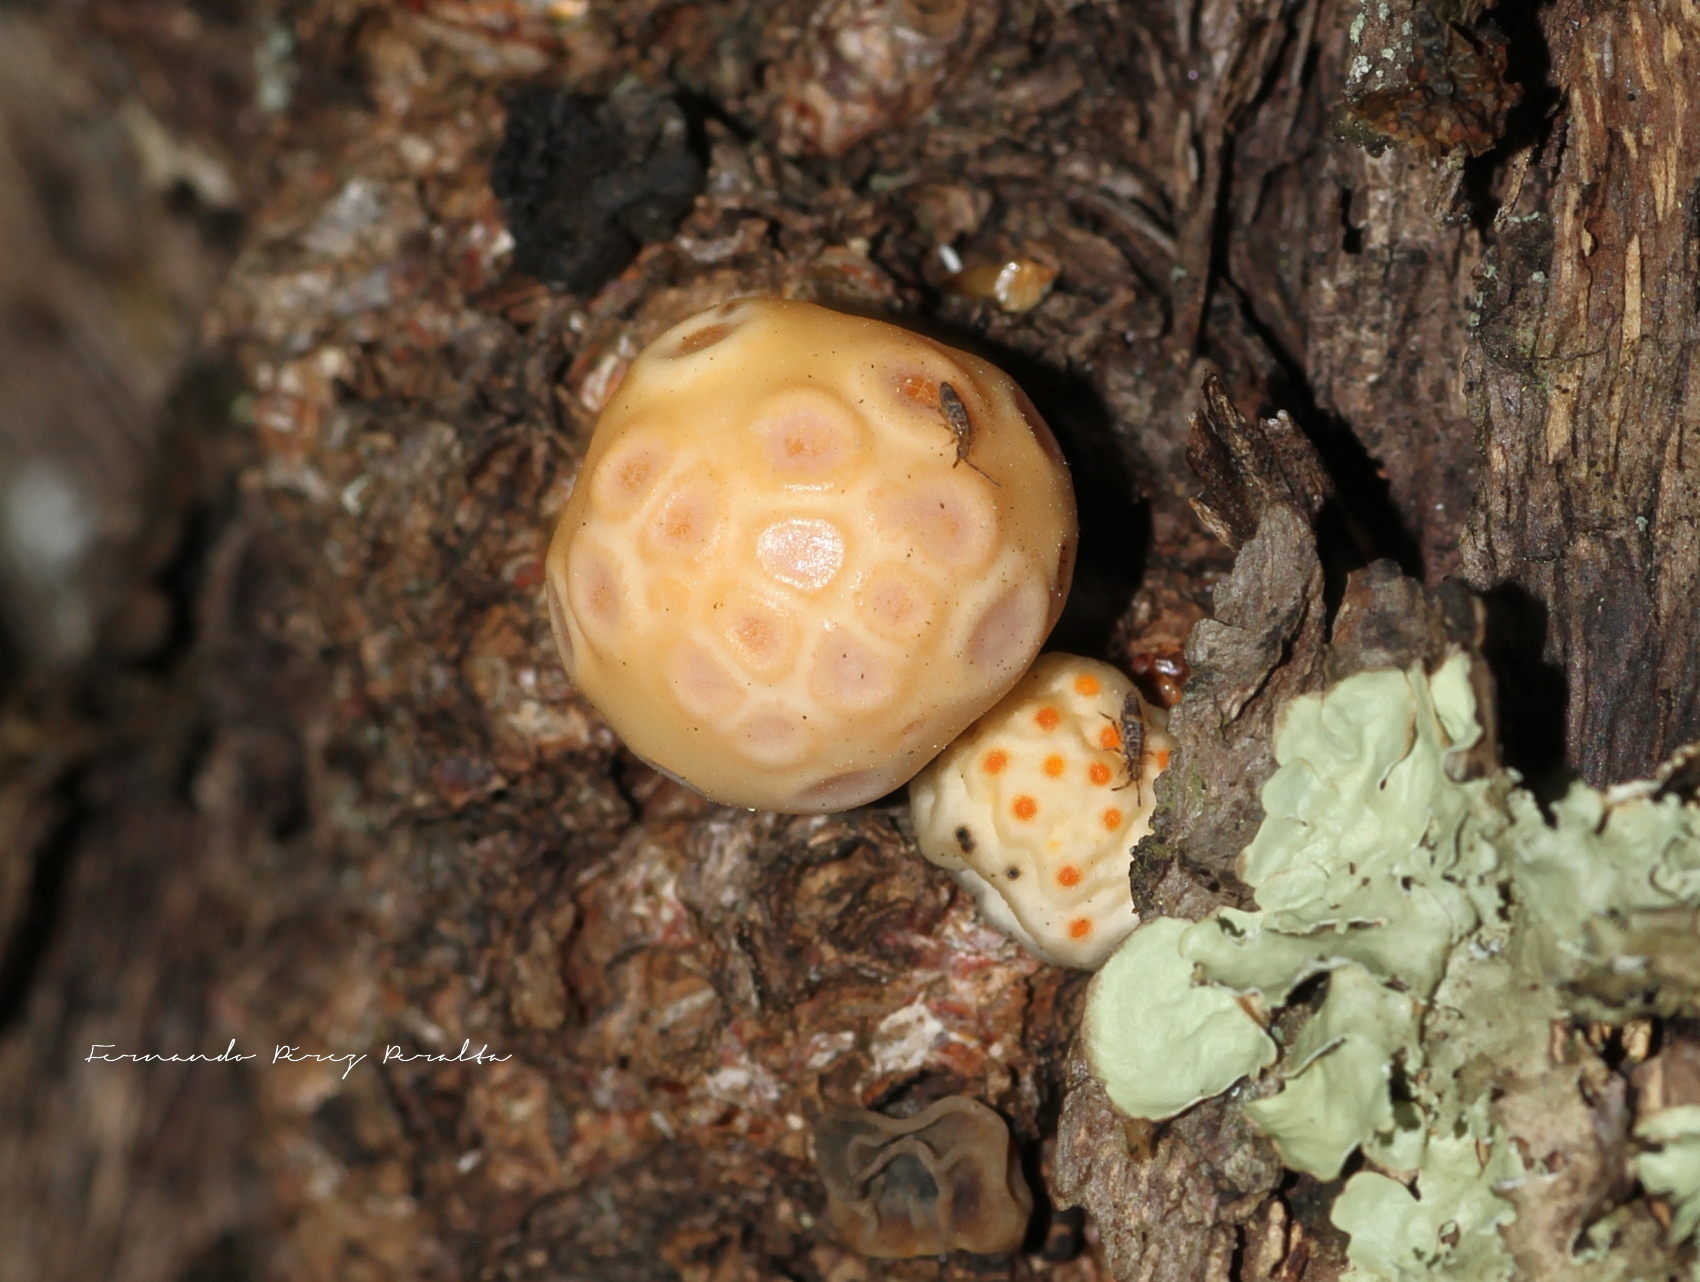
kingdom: Fungi
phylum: Ascomycota
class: Leotiomycetes
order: Cyttariales
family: Cyttariaceae
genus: Cyttaria
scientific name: Cyttaria darwinii
